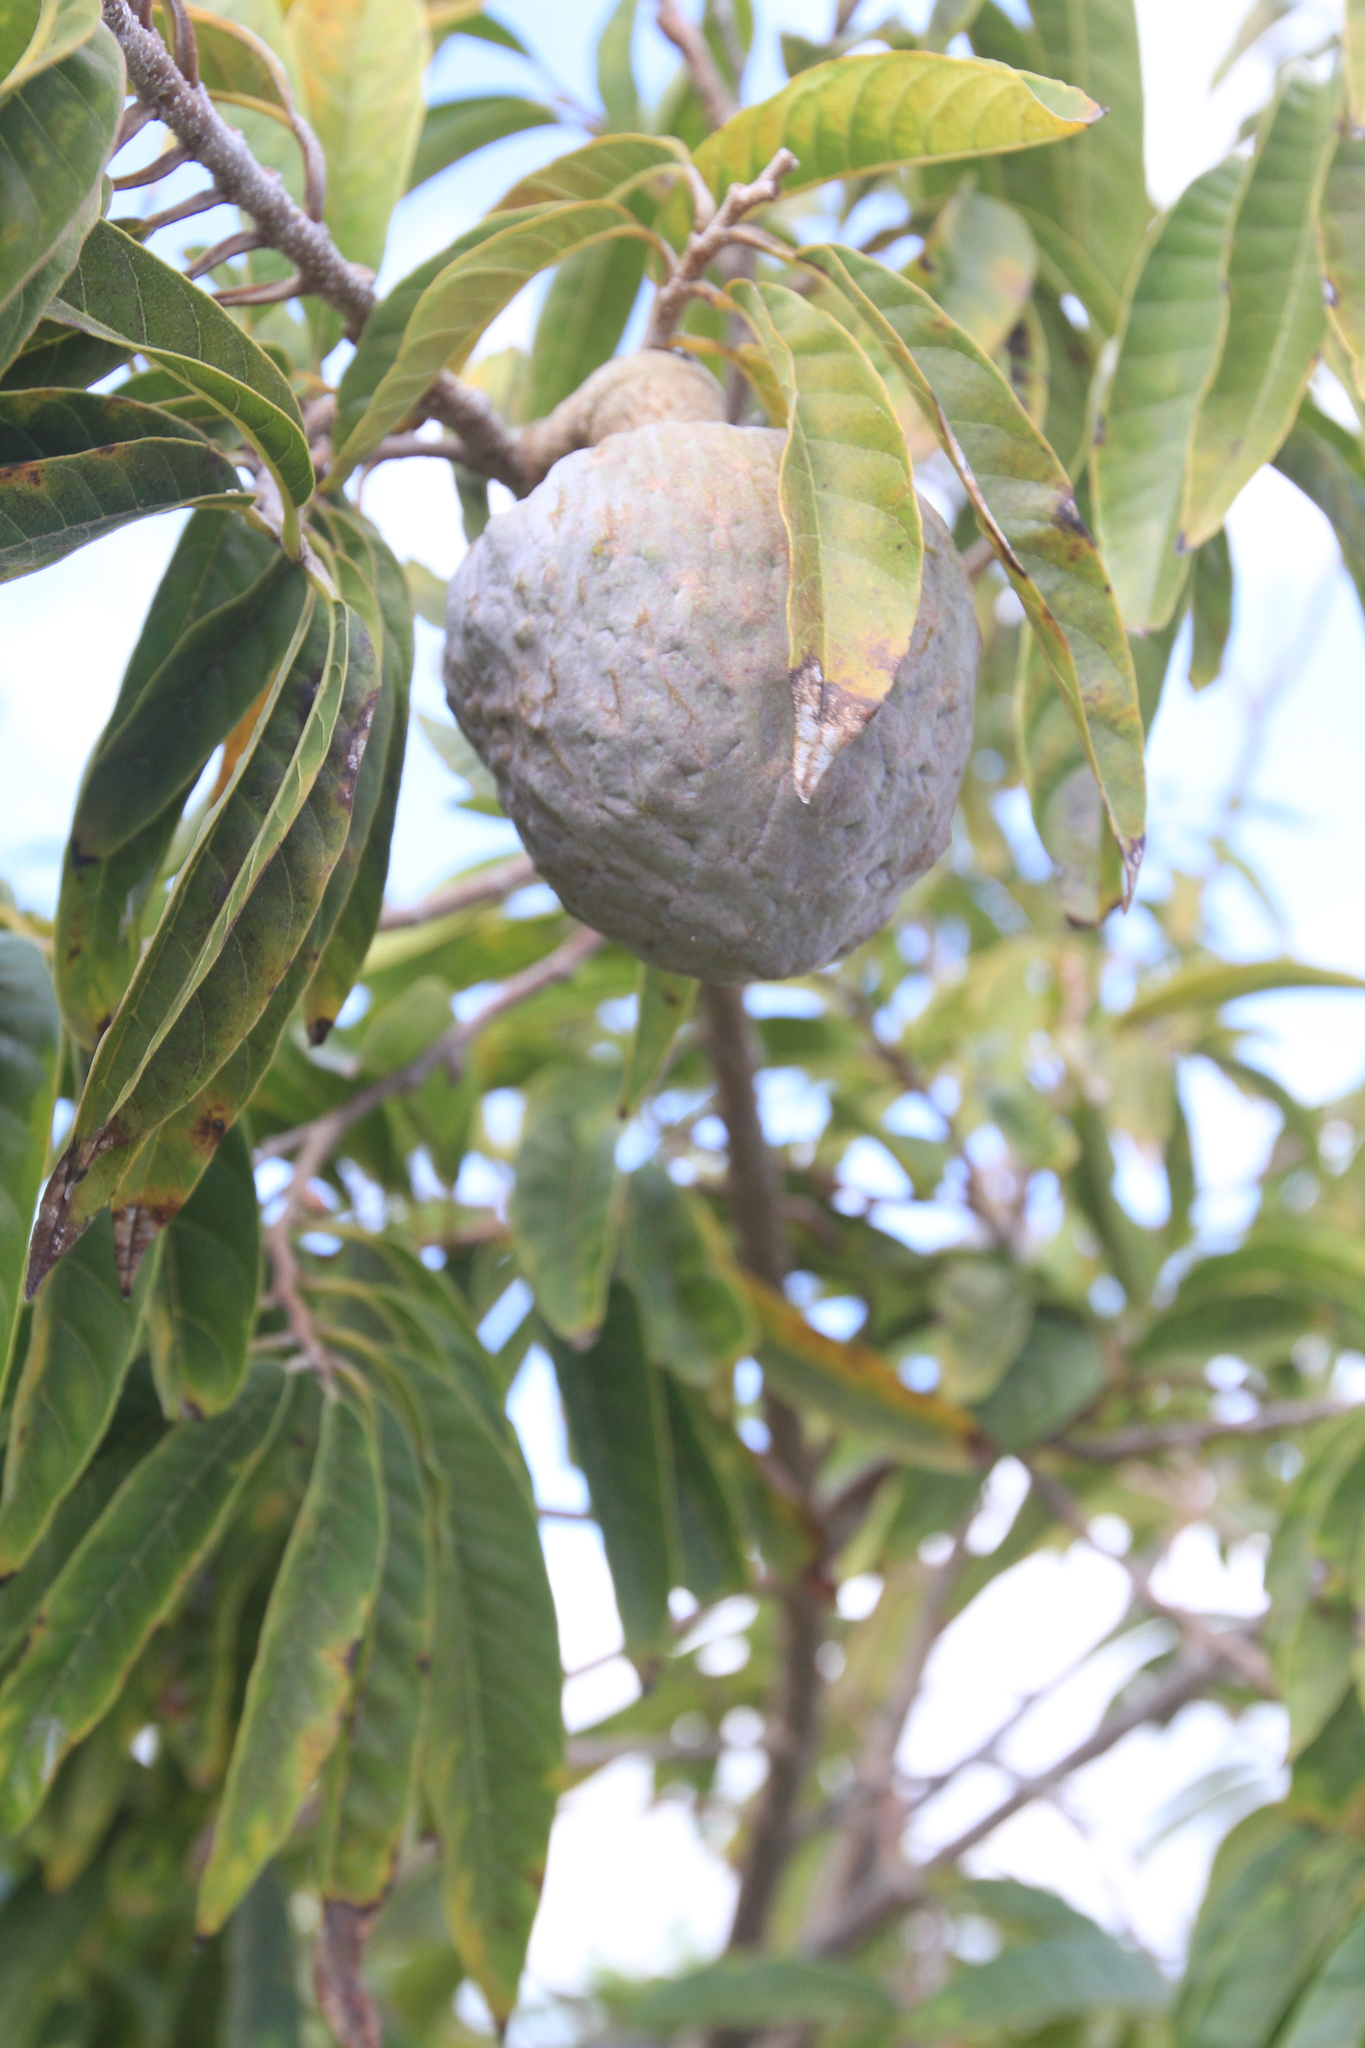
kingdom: Plantae
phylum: Tracheophyta
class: Magnoliopsida
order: Magnoliales
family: Annonaceae
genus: Annona
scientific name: Annona reticulata
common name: Custard apple
